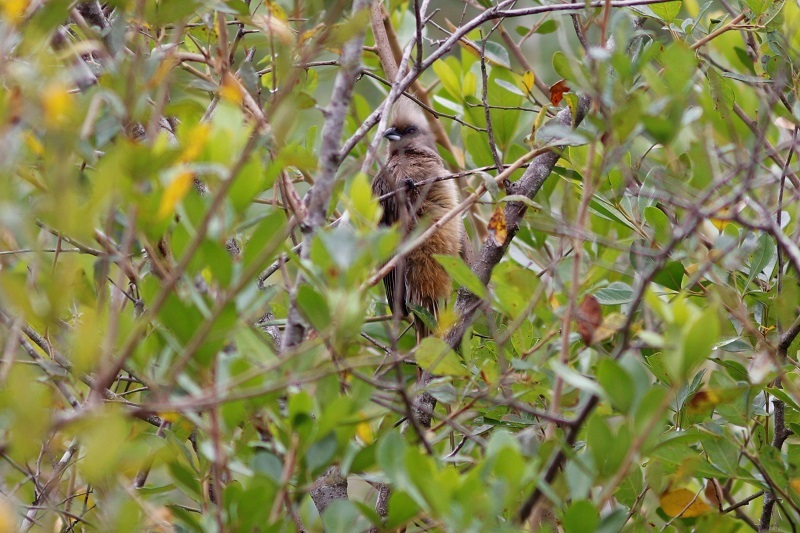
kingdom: Animalia
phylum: Chordata
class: Aves
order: Coliiformes
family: Coliidae
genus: Colius
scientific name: Colius striatus
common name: Speckled mousebird
